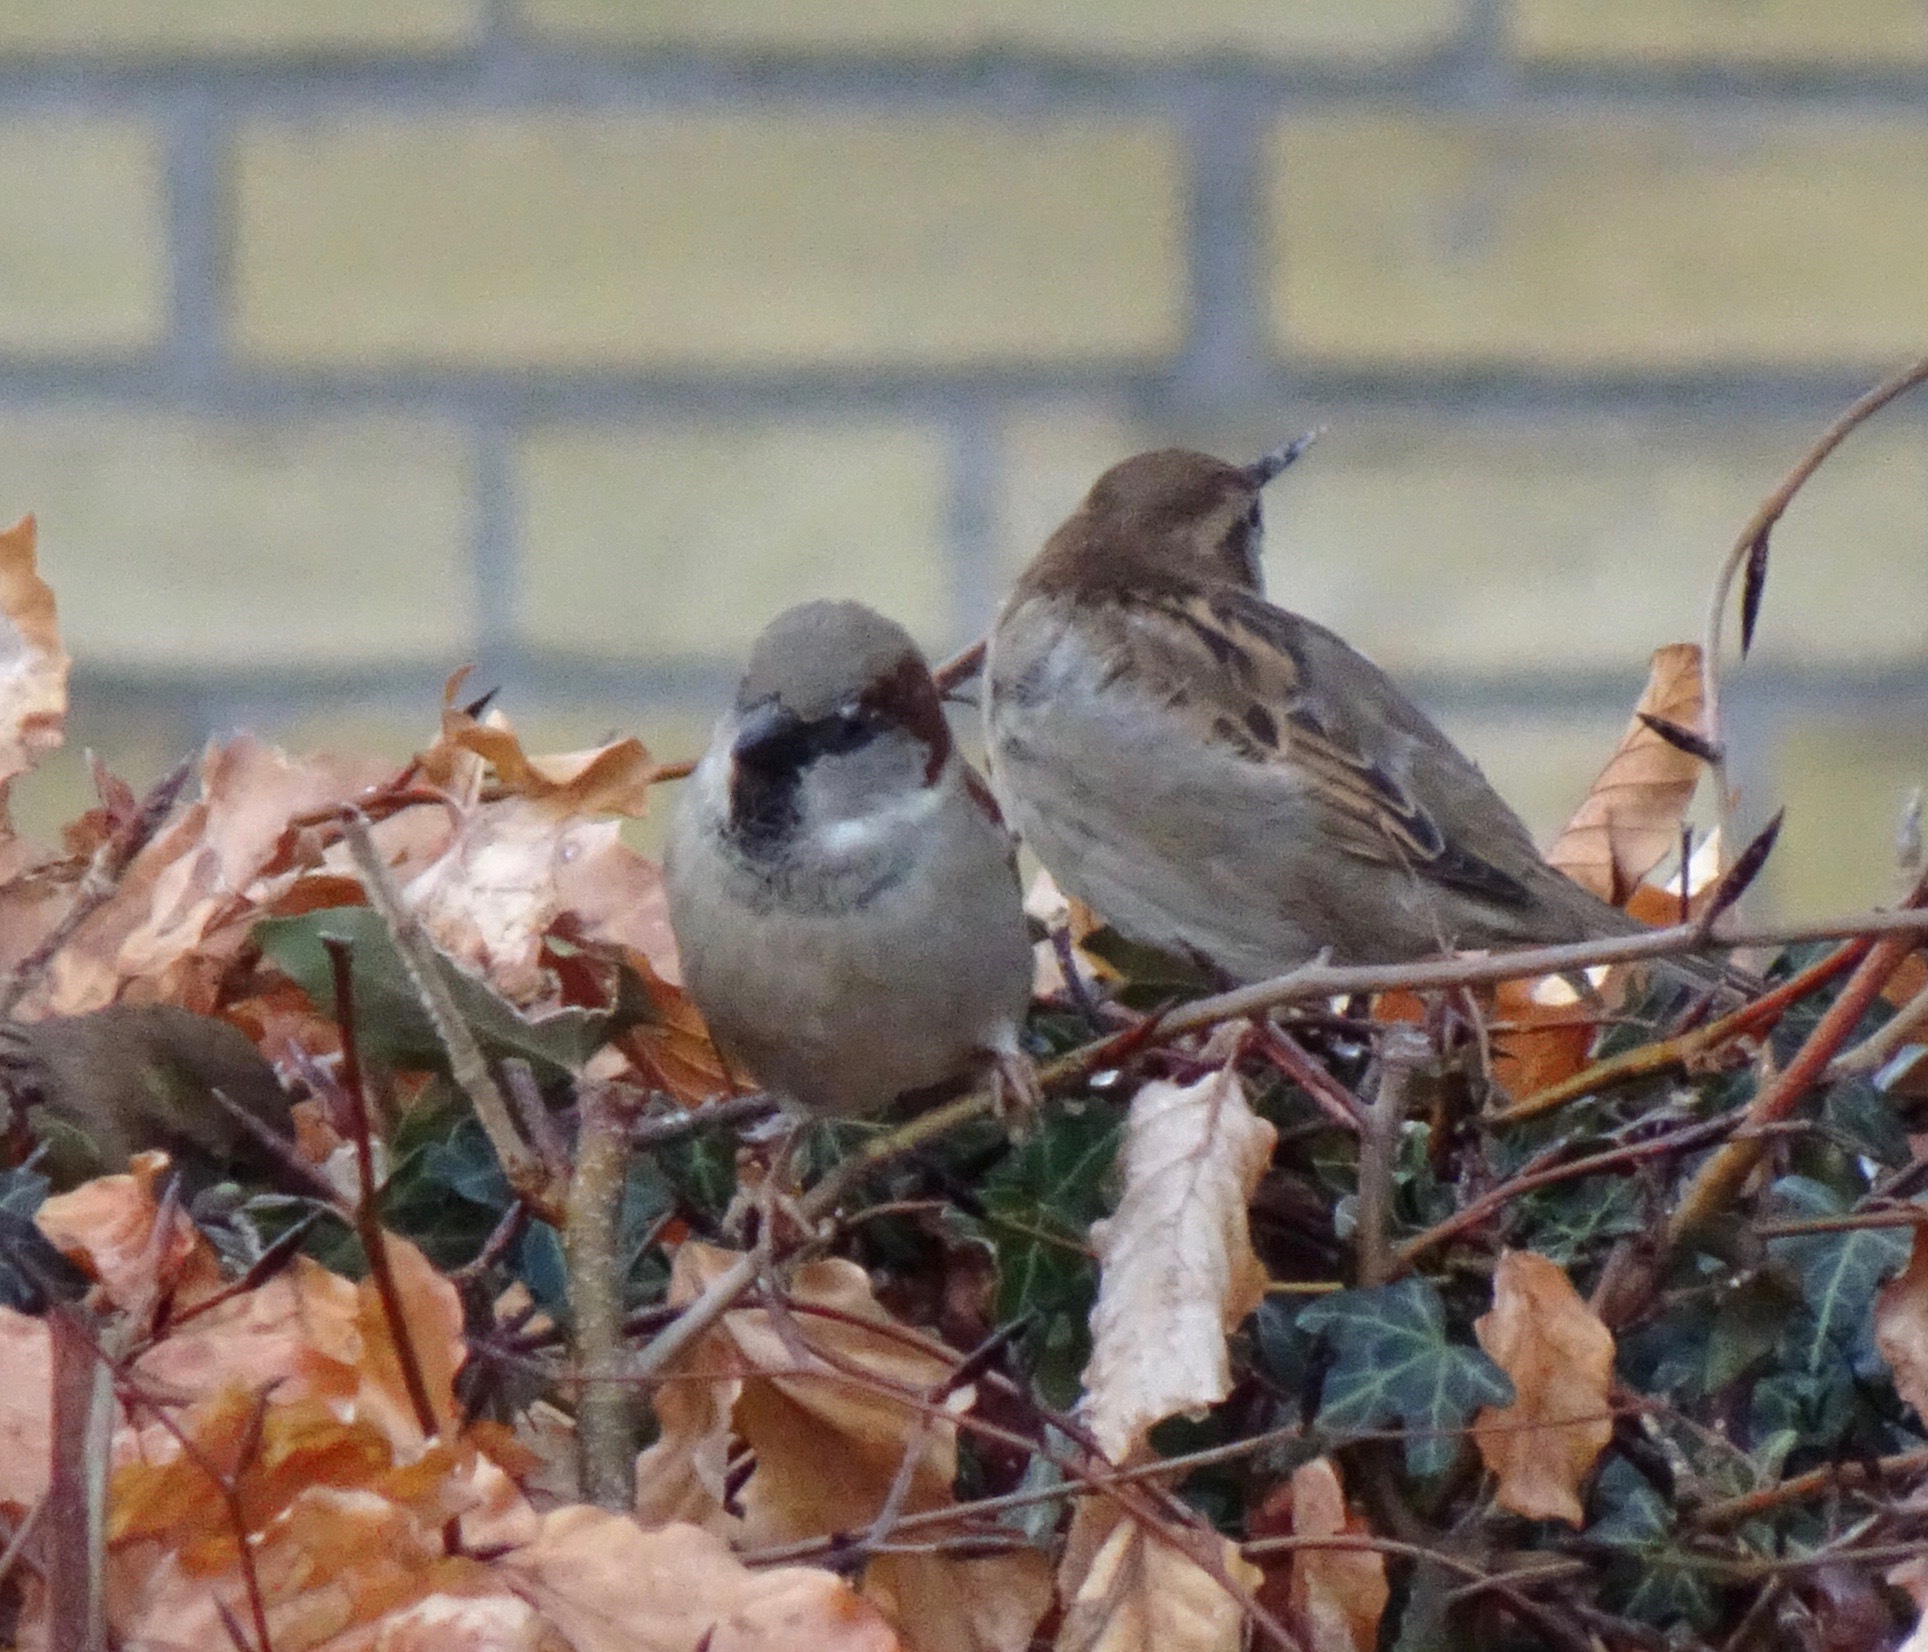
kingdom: Animalia
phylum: Chordata
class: Aves
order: Passeriformes
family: Passeridae
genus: Passer
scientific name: Passer domesticus
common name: House sparrow
